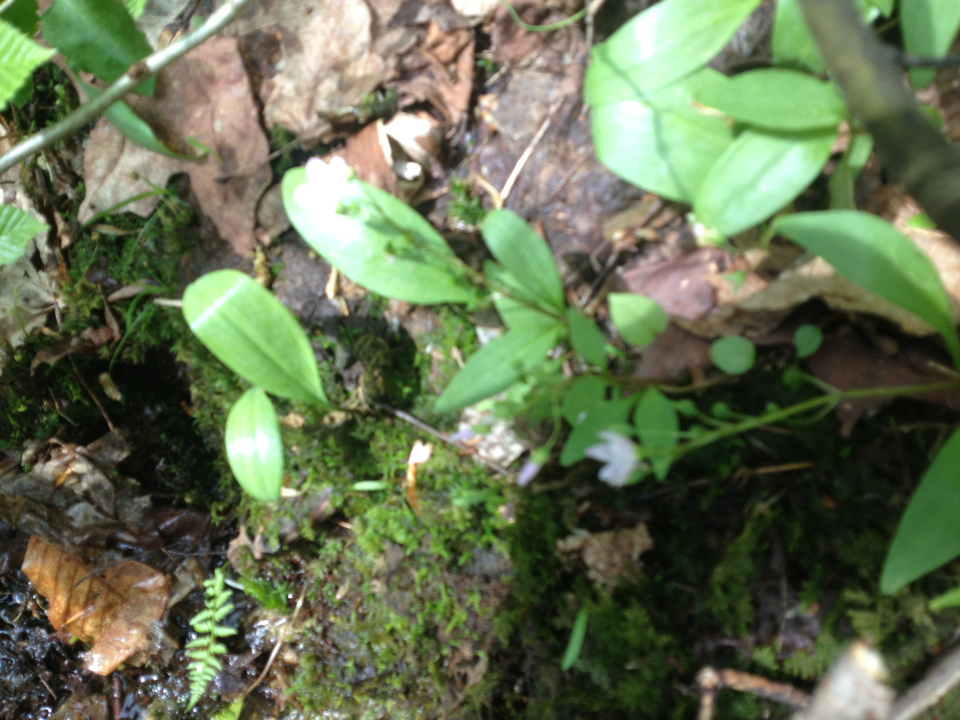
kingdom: Plantae
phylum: Tracheophyta
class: Magnoliopsida
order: Caryophyllales
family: Montiaceae
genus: Claytonia
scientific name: Claytonia caroliniana
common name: Carolina spring beauty
